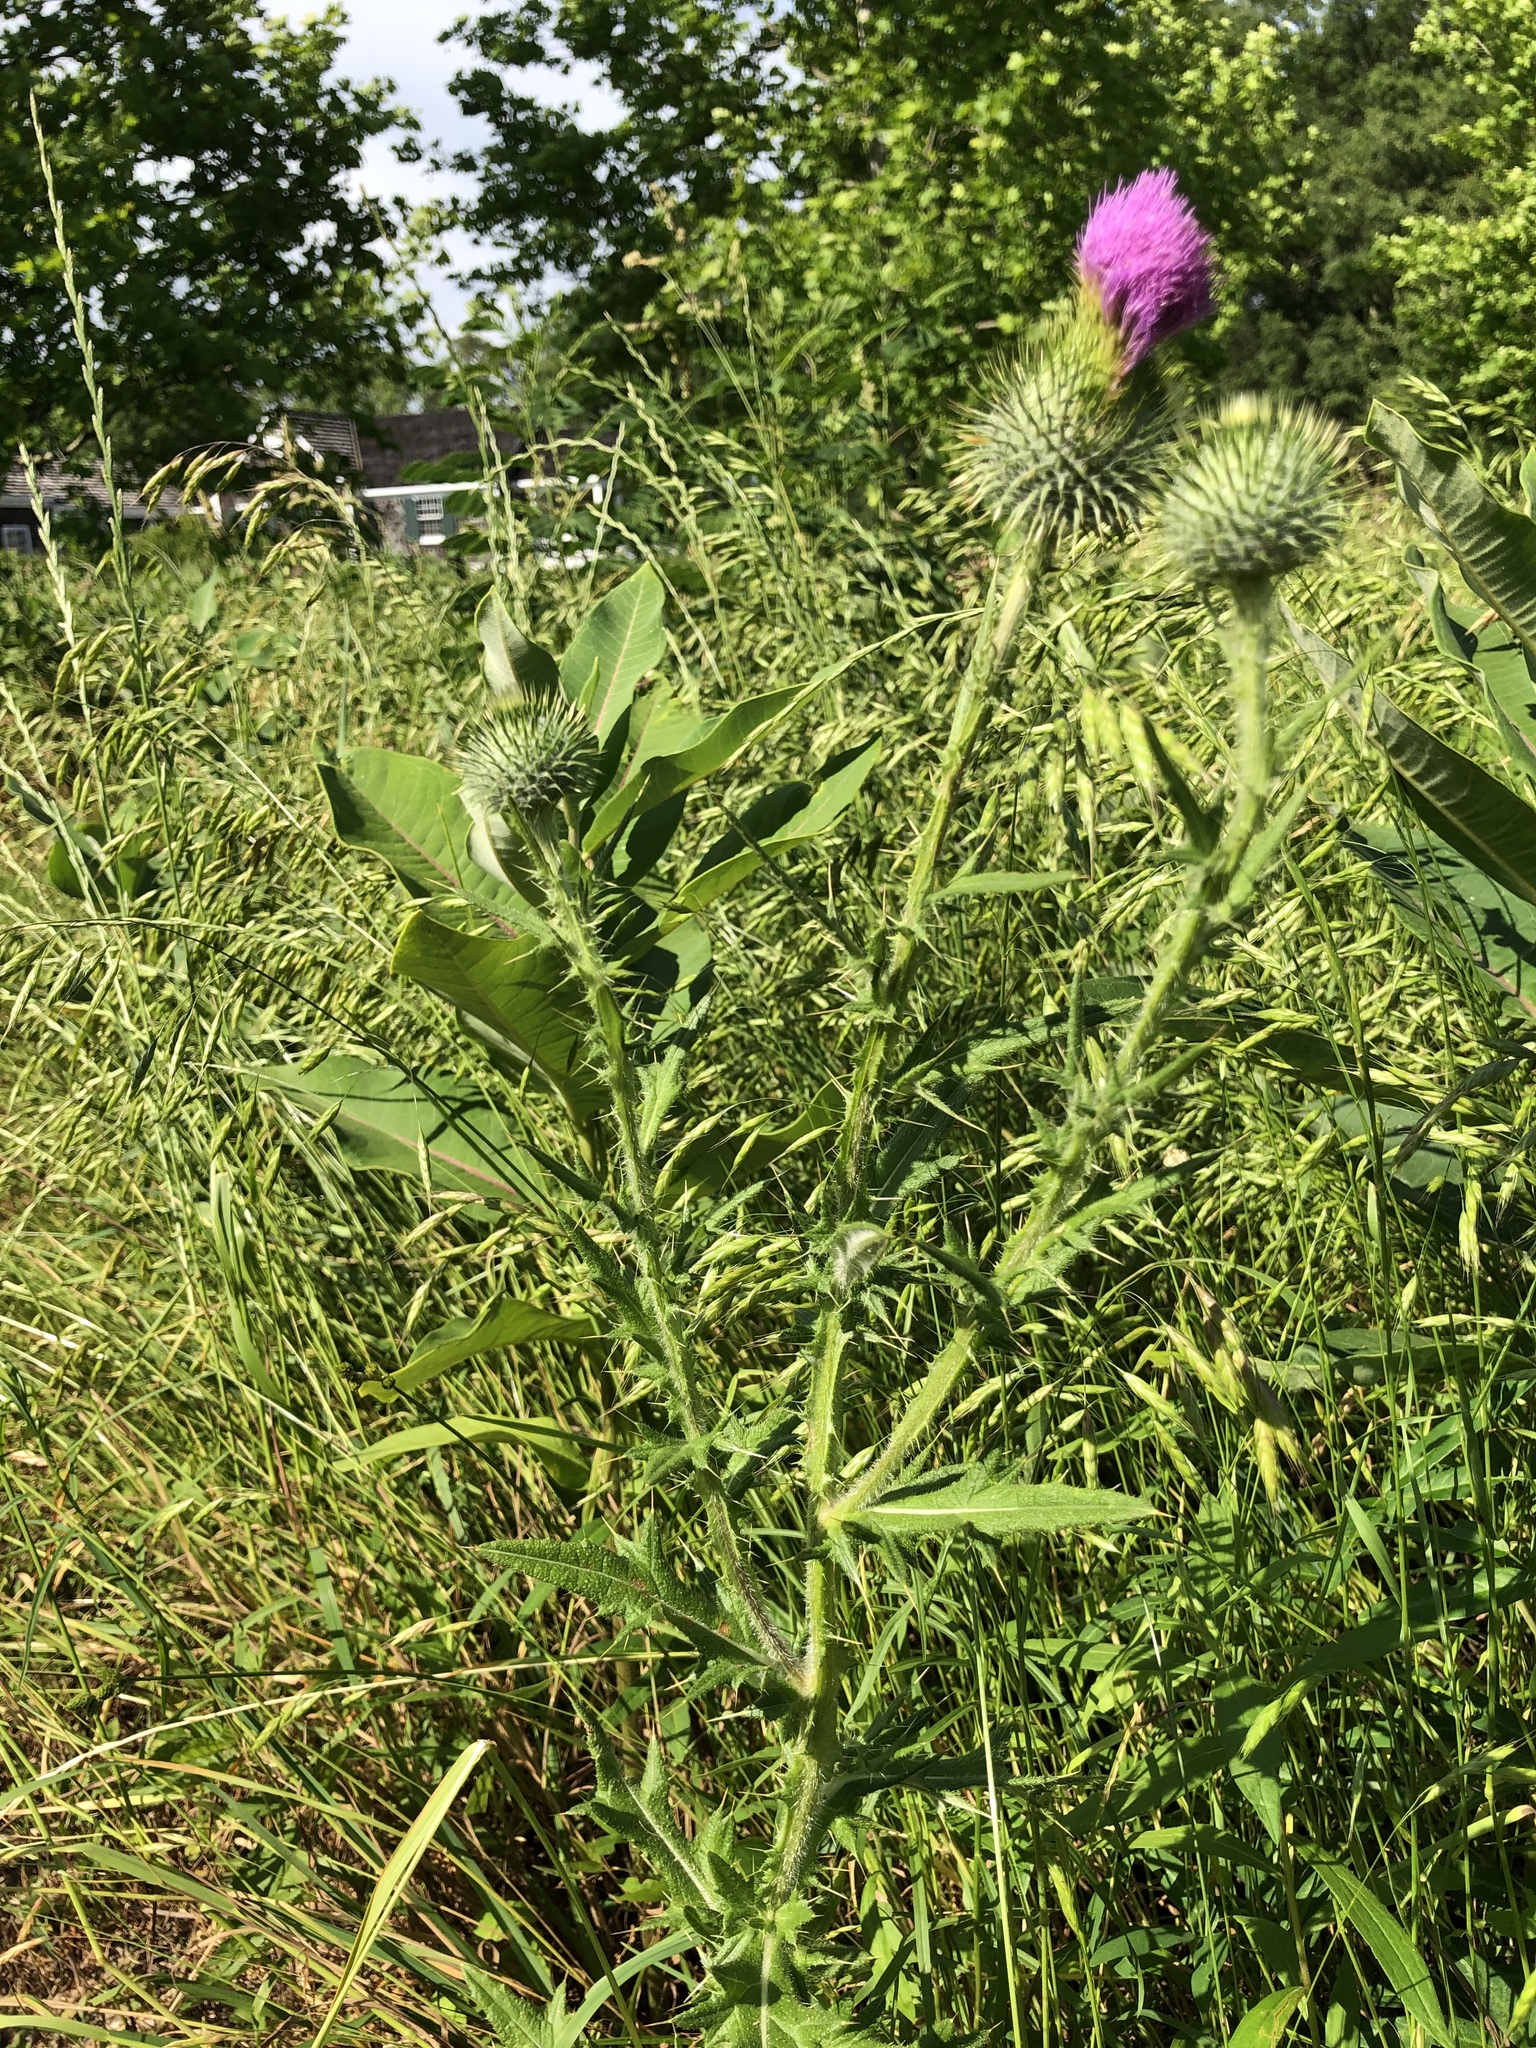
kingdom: Plantae
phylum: Tracheophyta
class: Magnoliopsida
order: Asterales
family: Asteraceae
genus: Cirsium
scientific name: Cirsium vulgare
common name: Bull thistle
